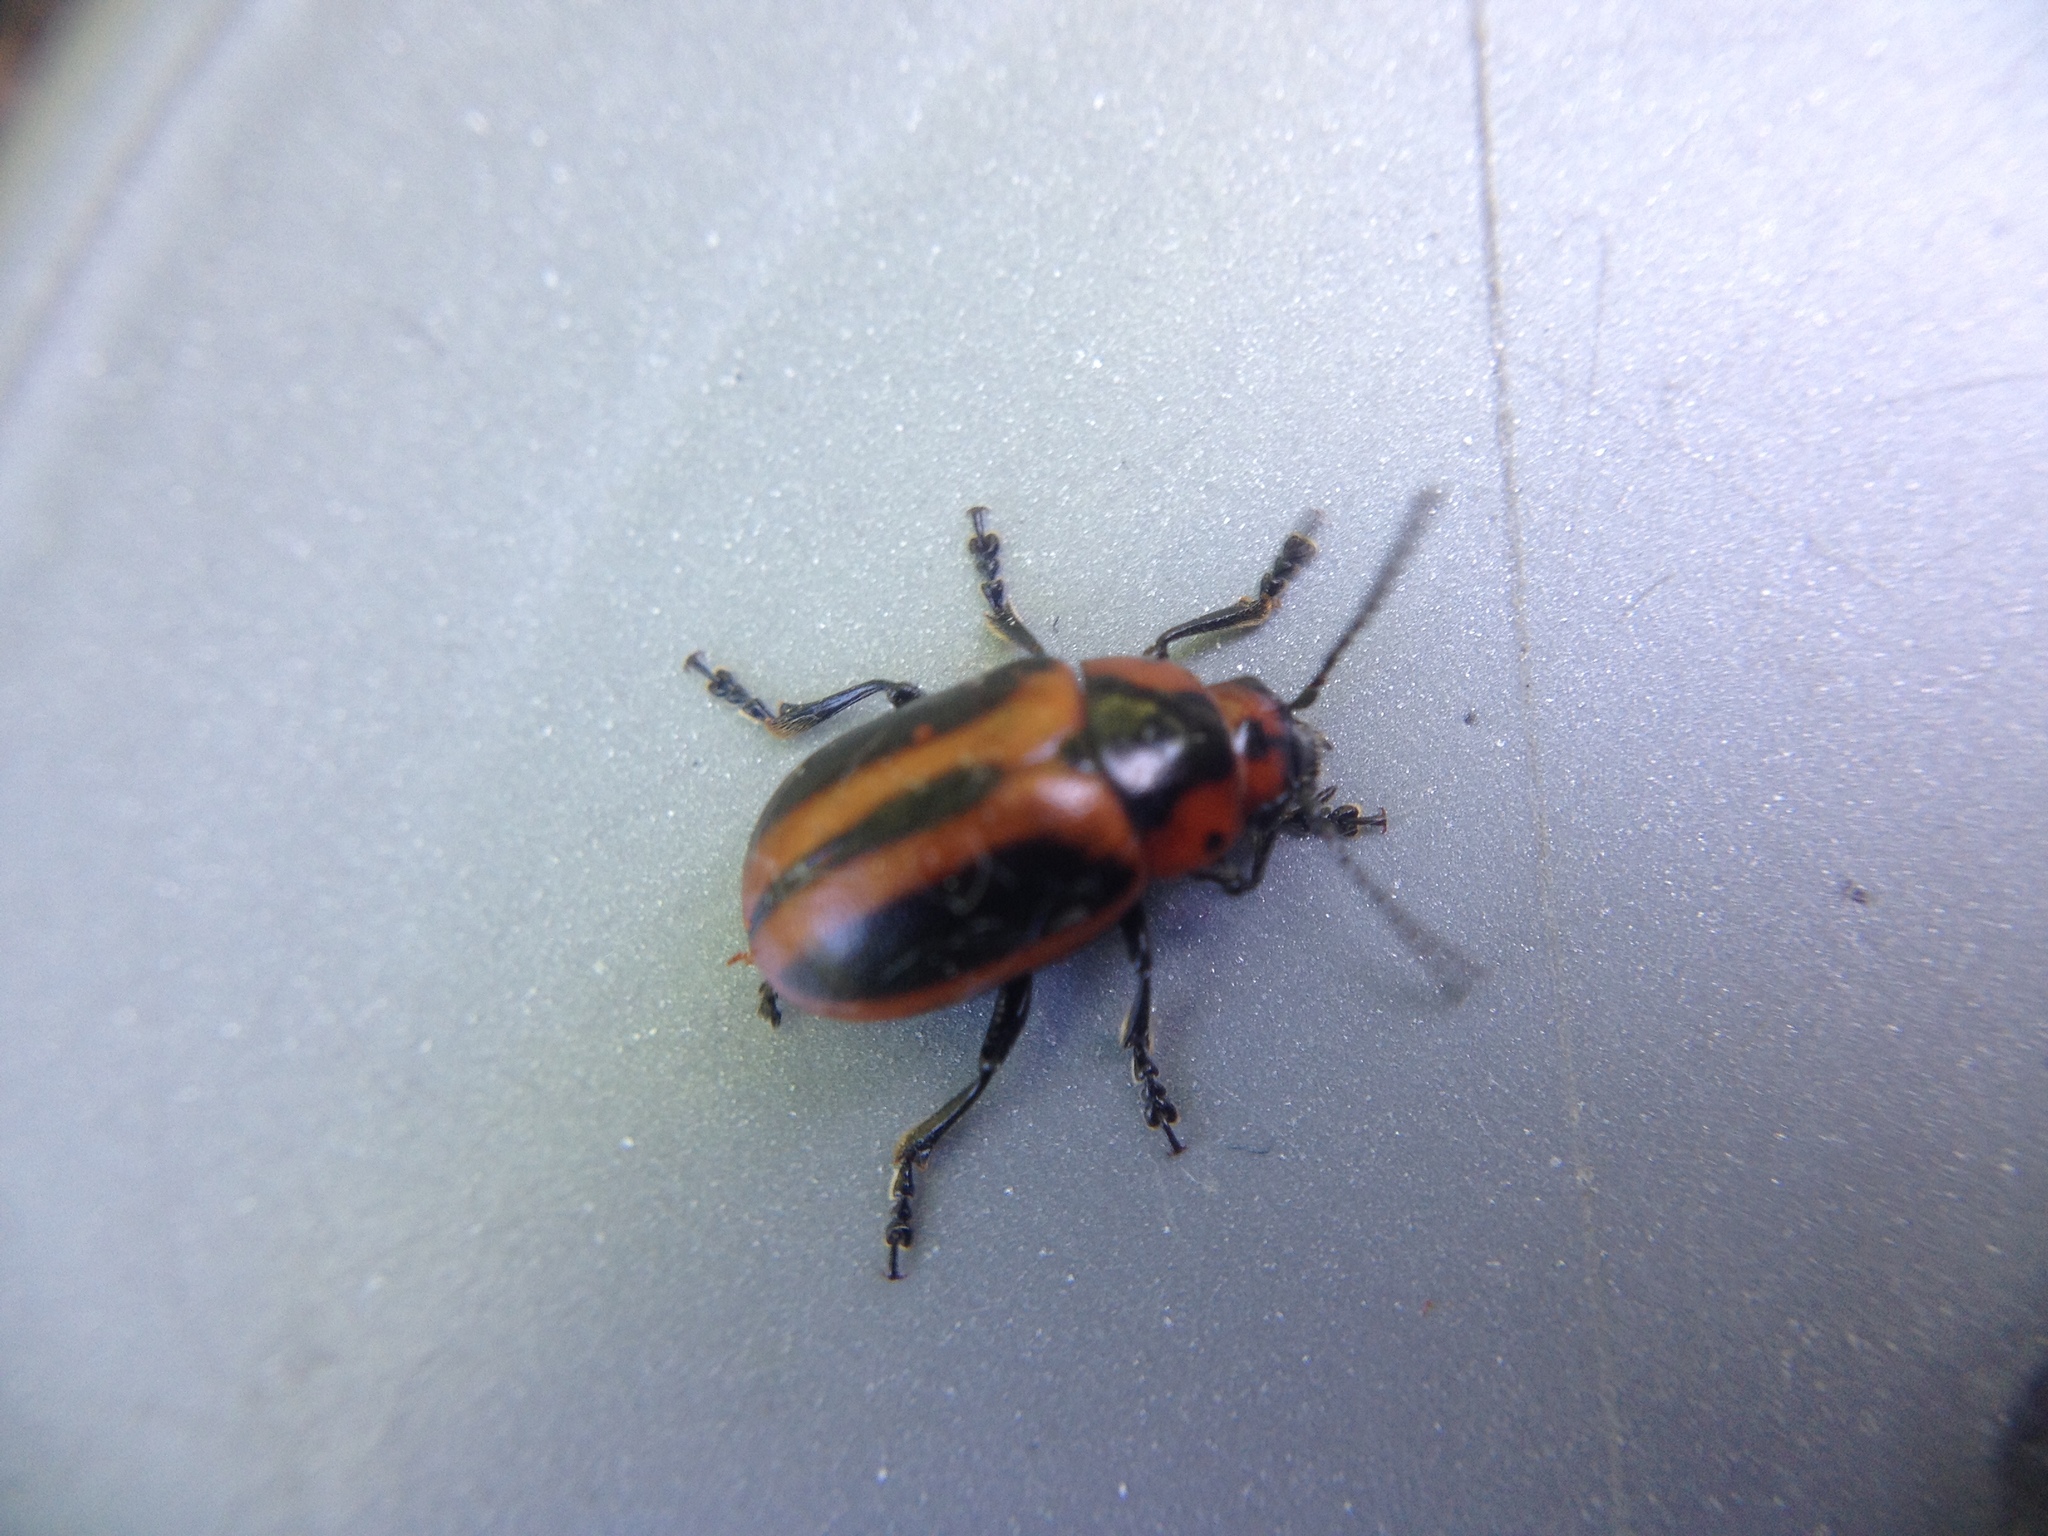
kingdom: Animalia
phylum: Arthropoda
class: Insecta
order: Coleoptera
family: Chrysomelidae
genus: Entomoscelis
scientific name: Entomoscelis adonidis
